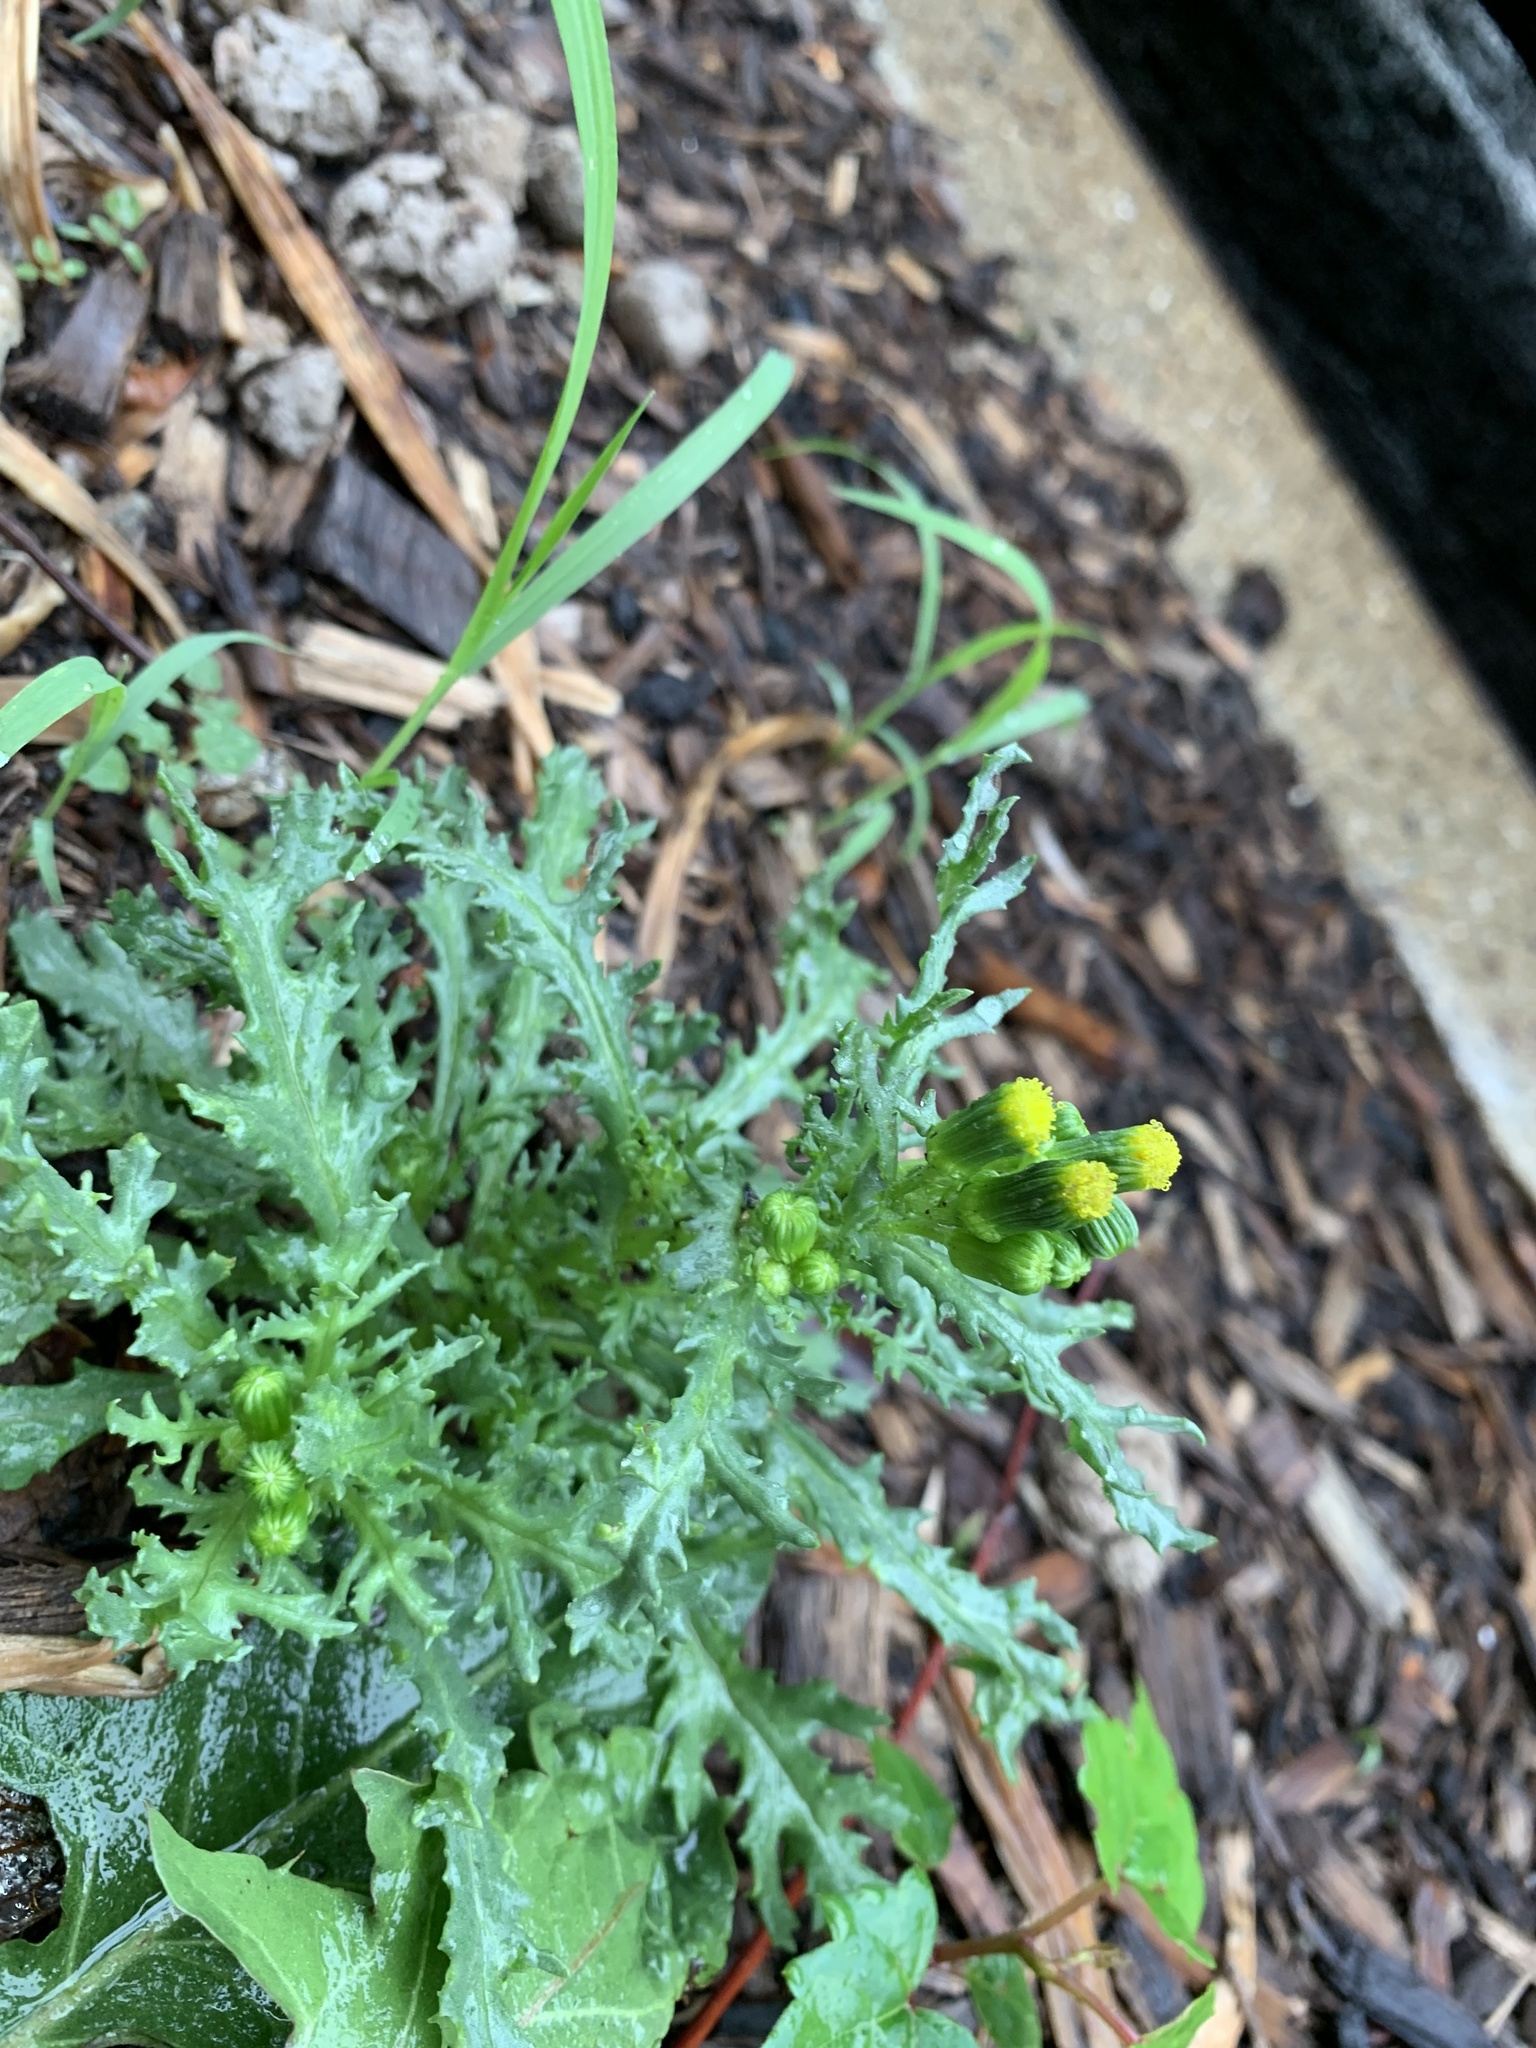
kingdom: Plantae
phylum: Tracheophyta
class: Magnoliopsida
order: Asterales
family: Asteraceae
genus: Senecio
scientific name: Senecio vulgaris
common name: Old-man-in-the-spring
